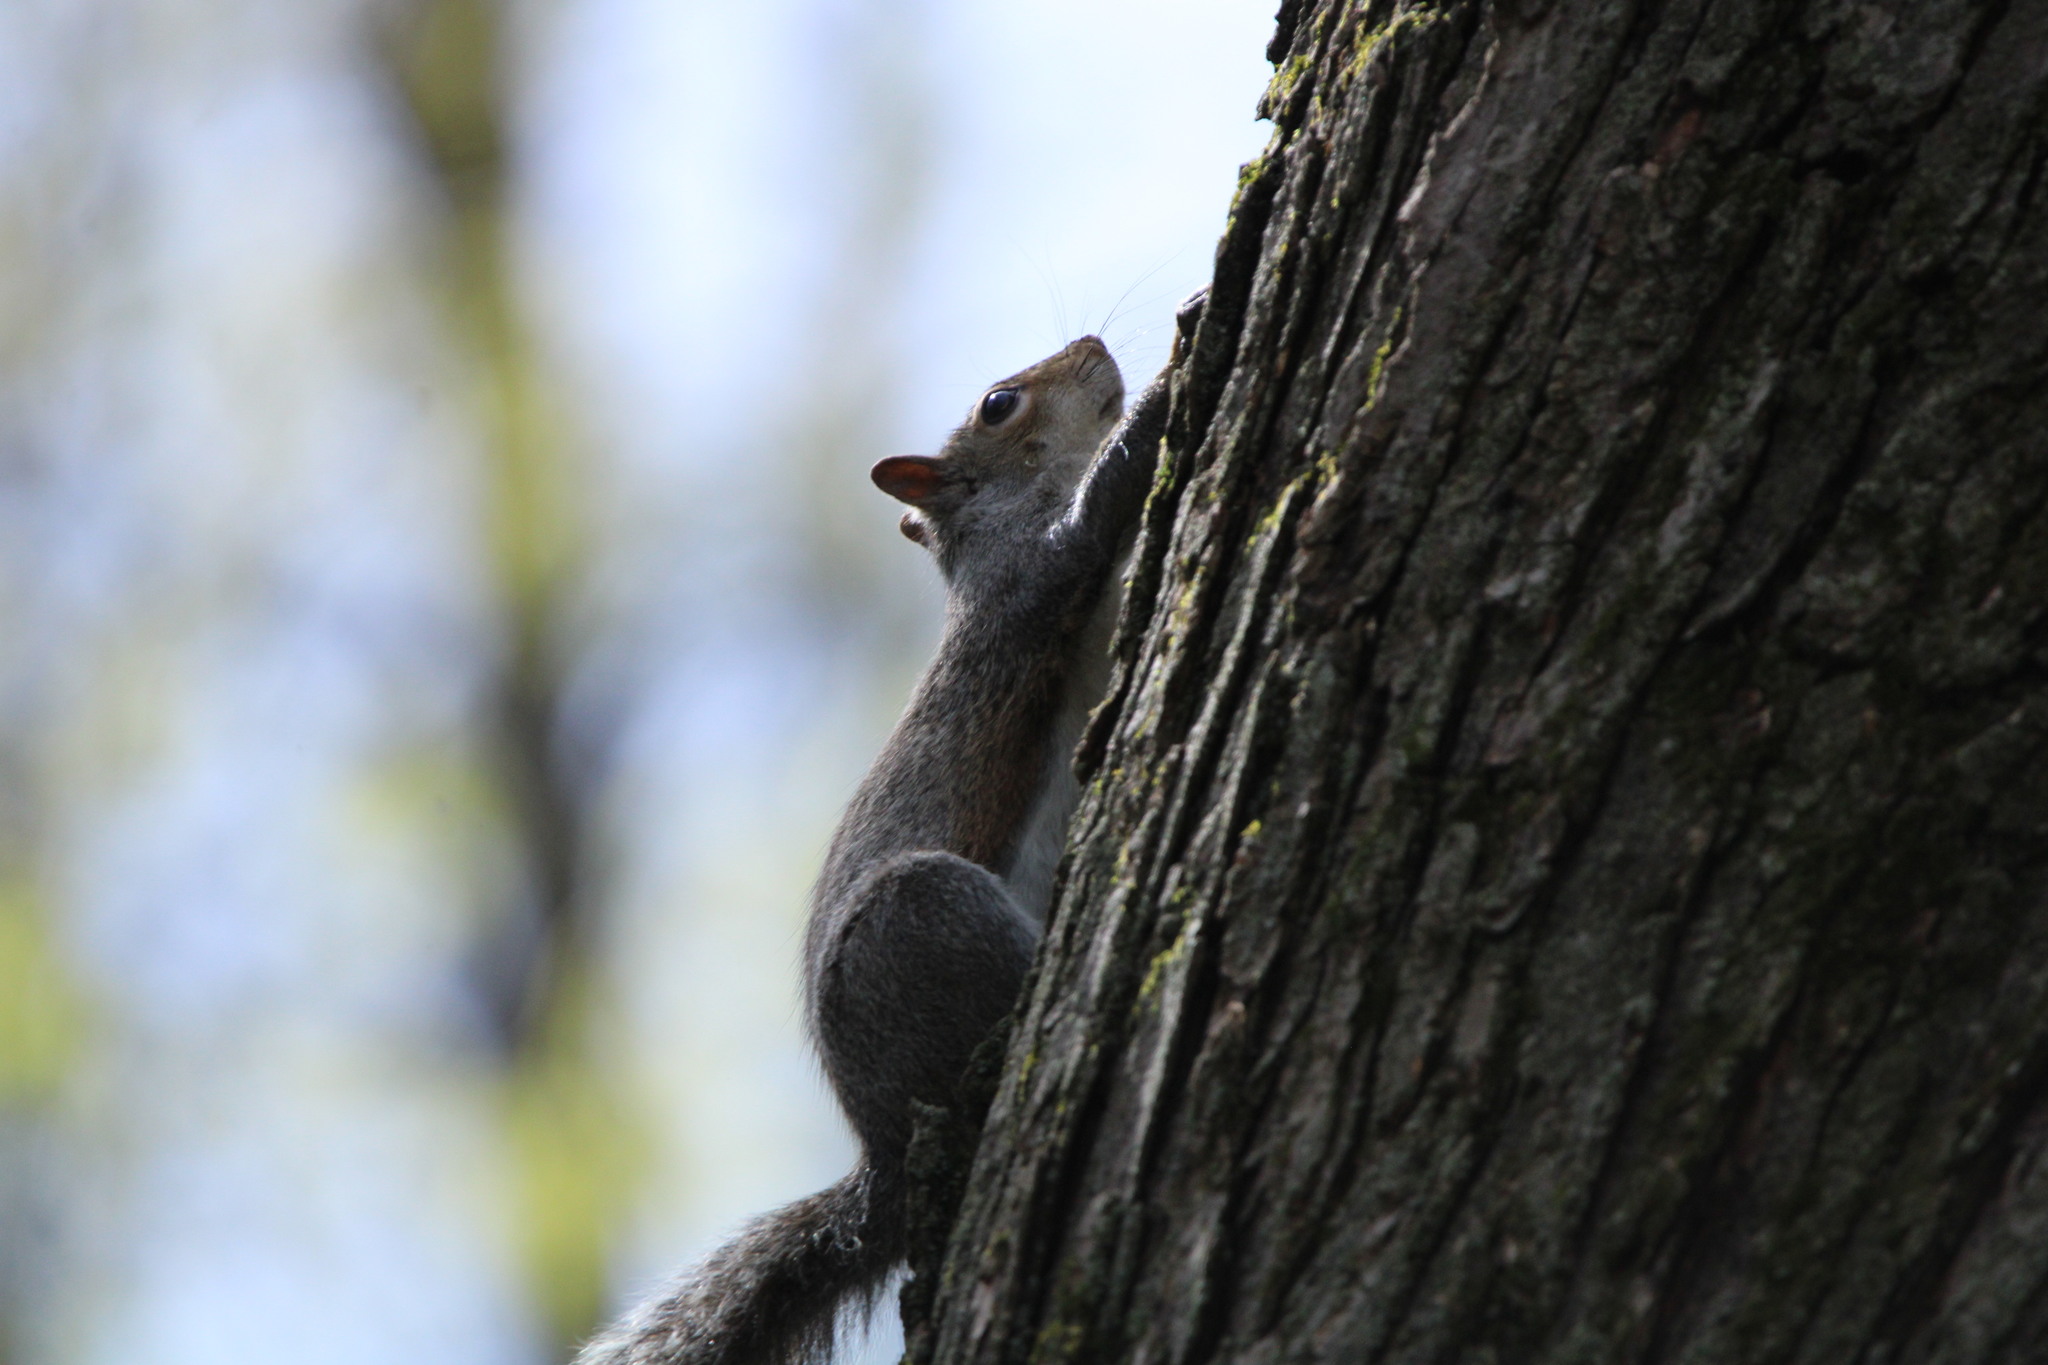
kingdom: Animalia
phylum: Chordata
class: Mammalia
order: Rodentia
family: Sciuridae
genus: Sciurus
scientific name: Sciurus carolinensis
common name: Eastern gray squirrel
